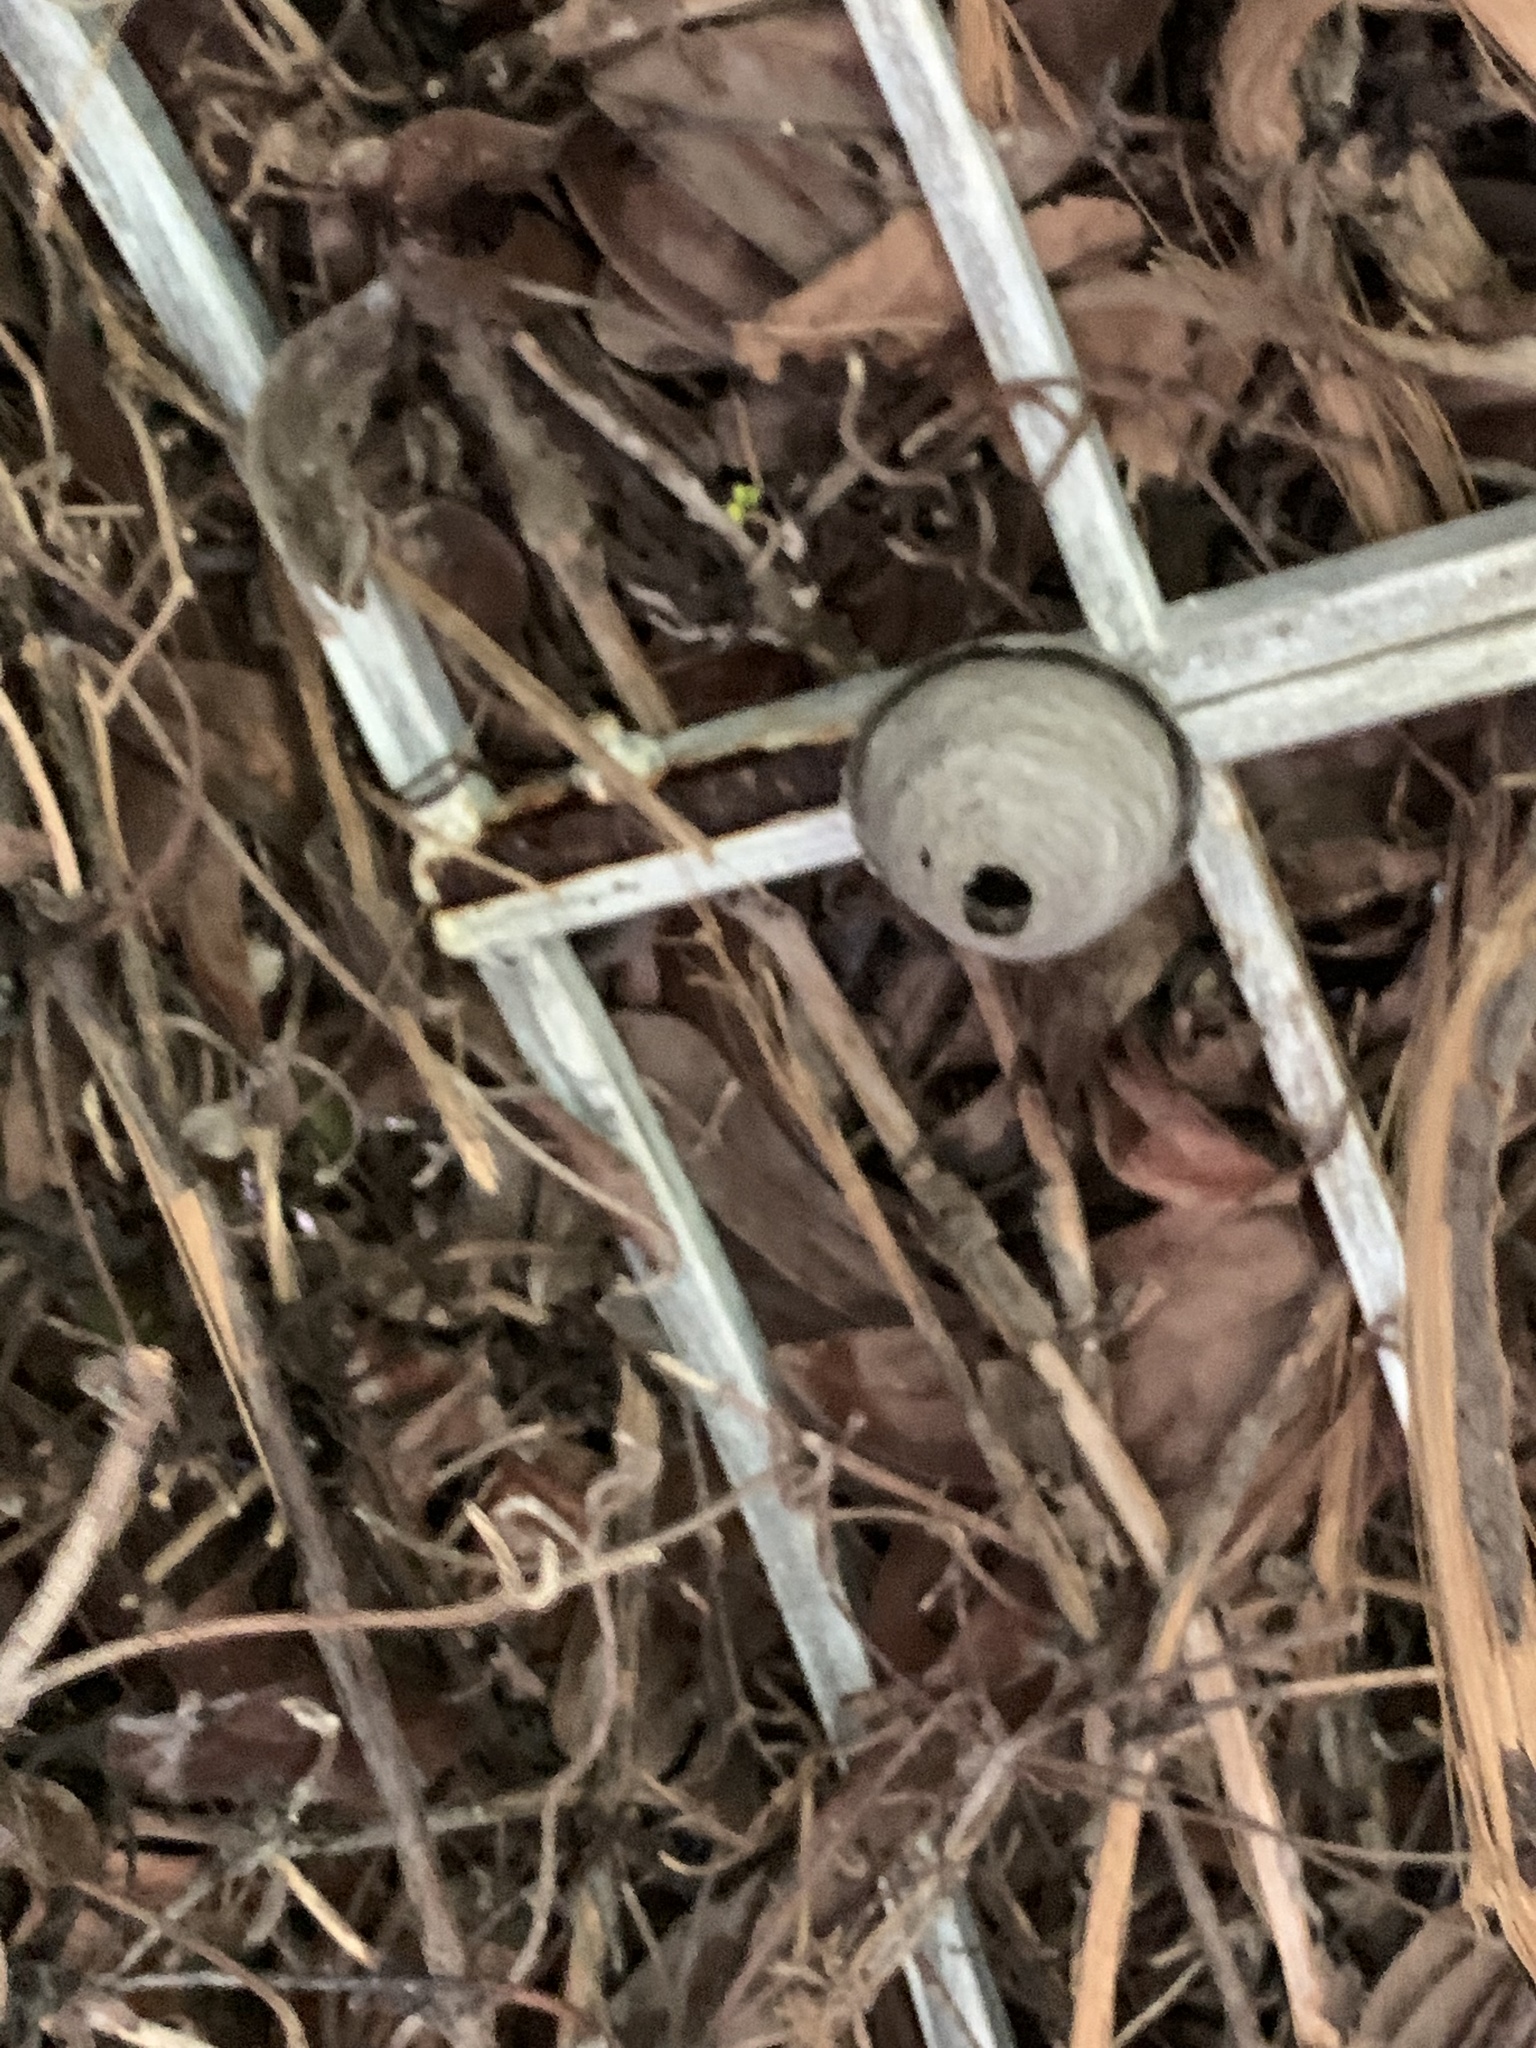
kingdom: Animalia
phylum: Arthropoda
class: Insecta
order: Hymenoptera
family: Vespidae
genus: Vespa
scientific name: Vespa crabro
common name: Hornet
